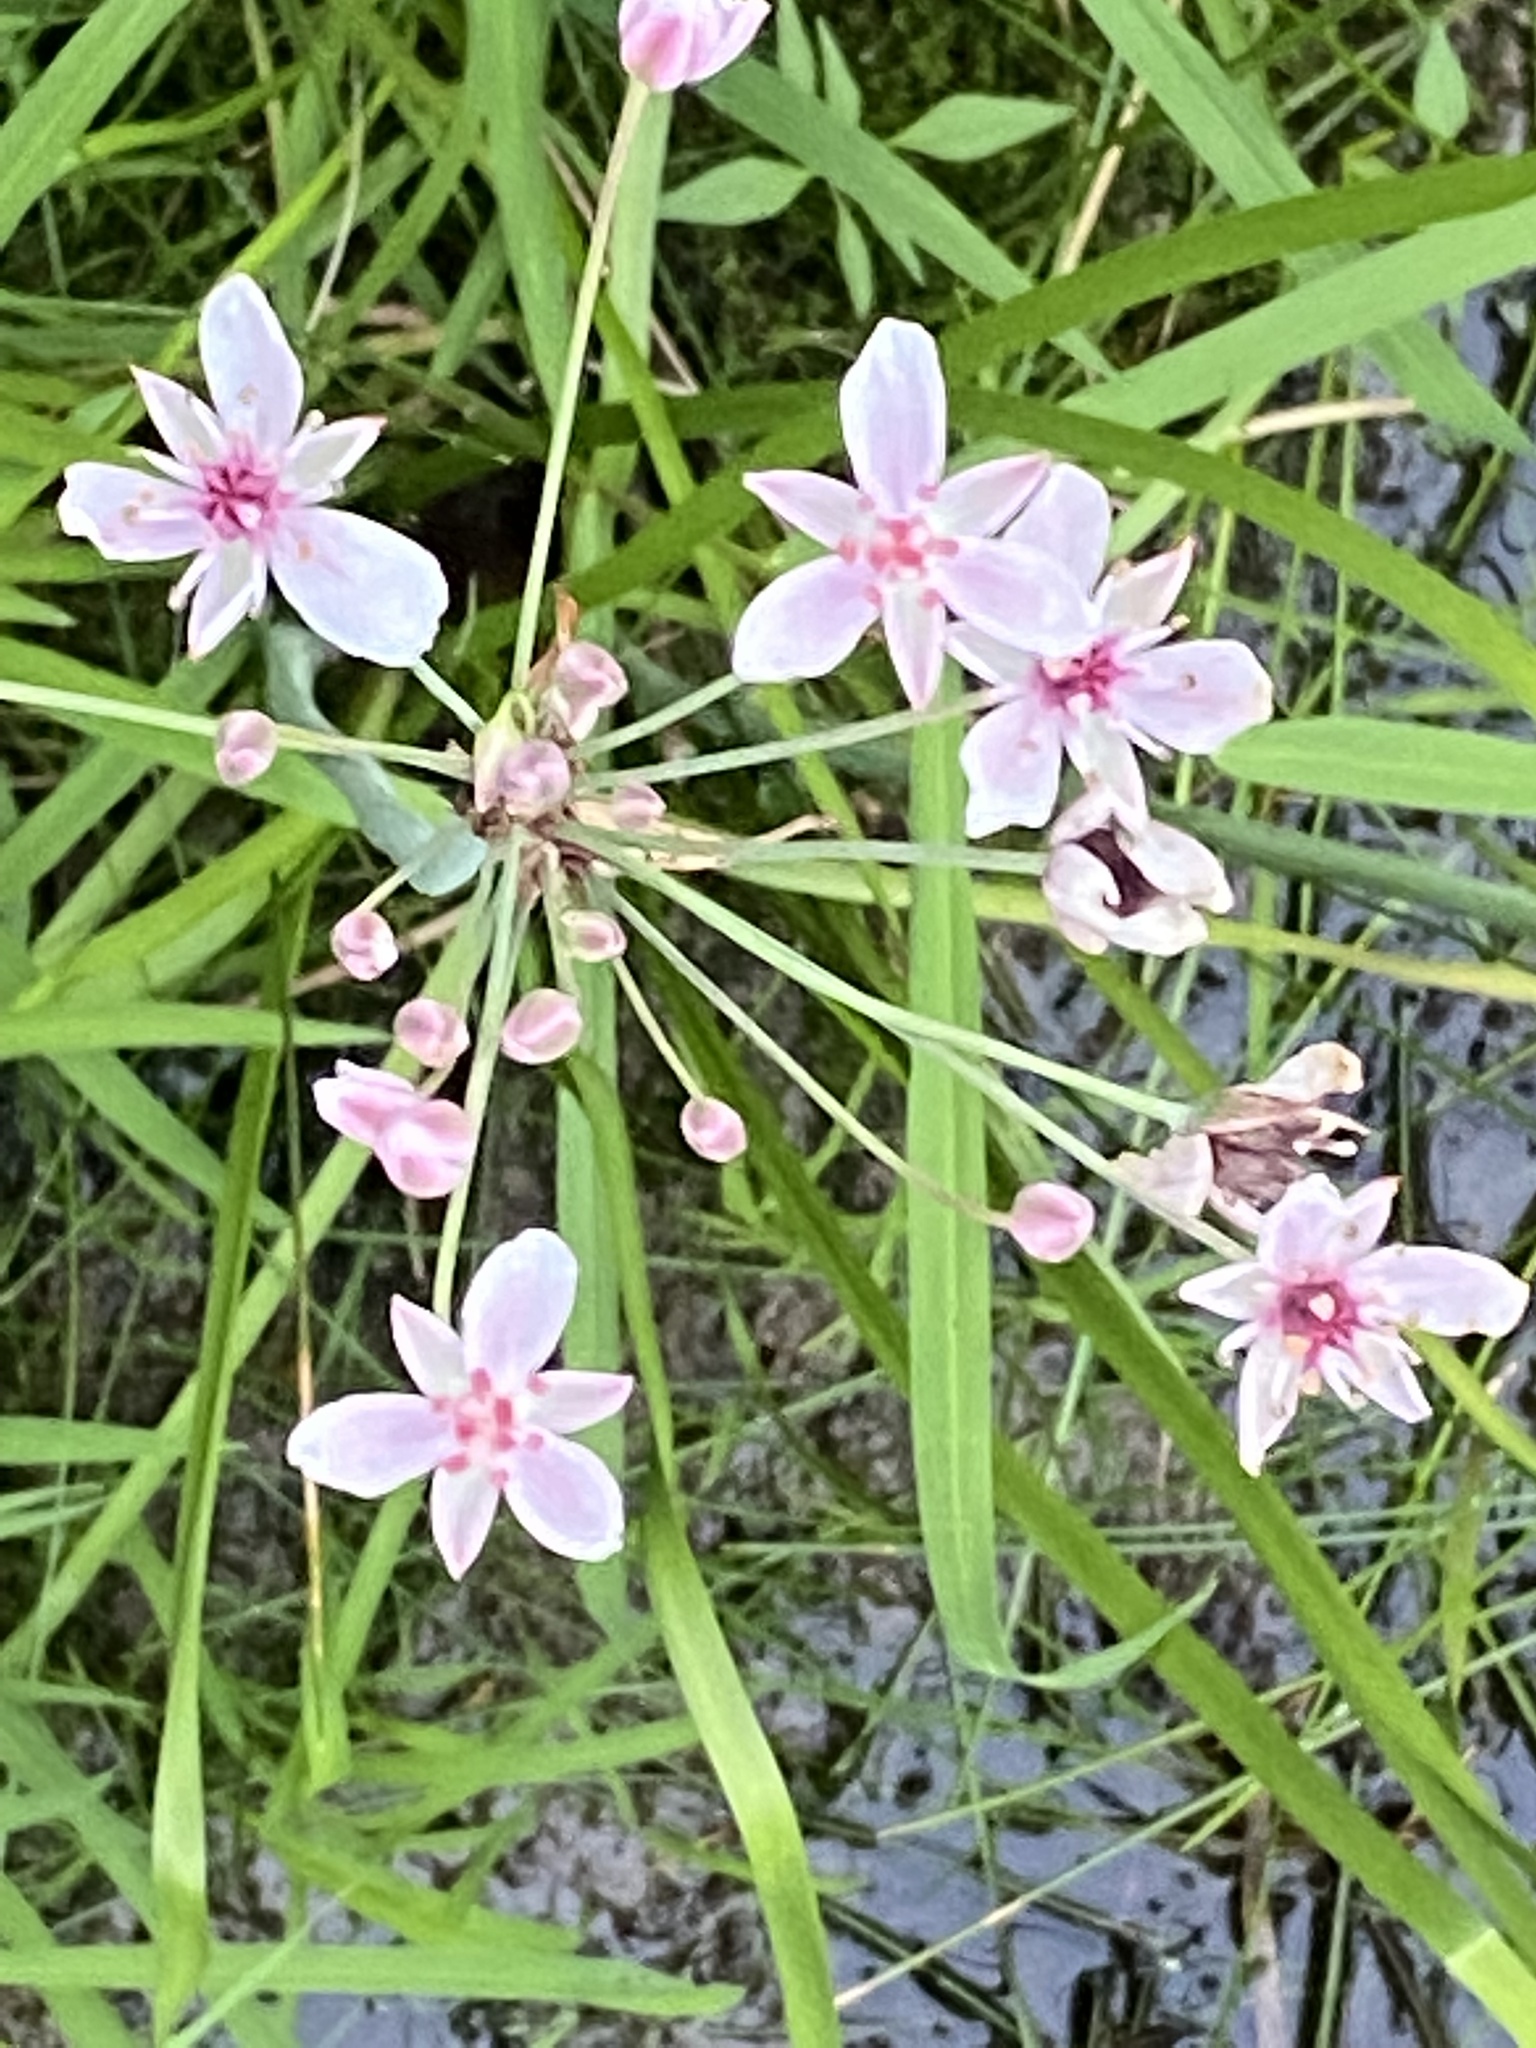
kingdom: Plantae
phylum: Tracheophyta
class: Liliopsida
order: Alismatales
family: Butomaceae
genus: Butomus
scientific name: Butomus umbellatus
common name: Flowering-rush
